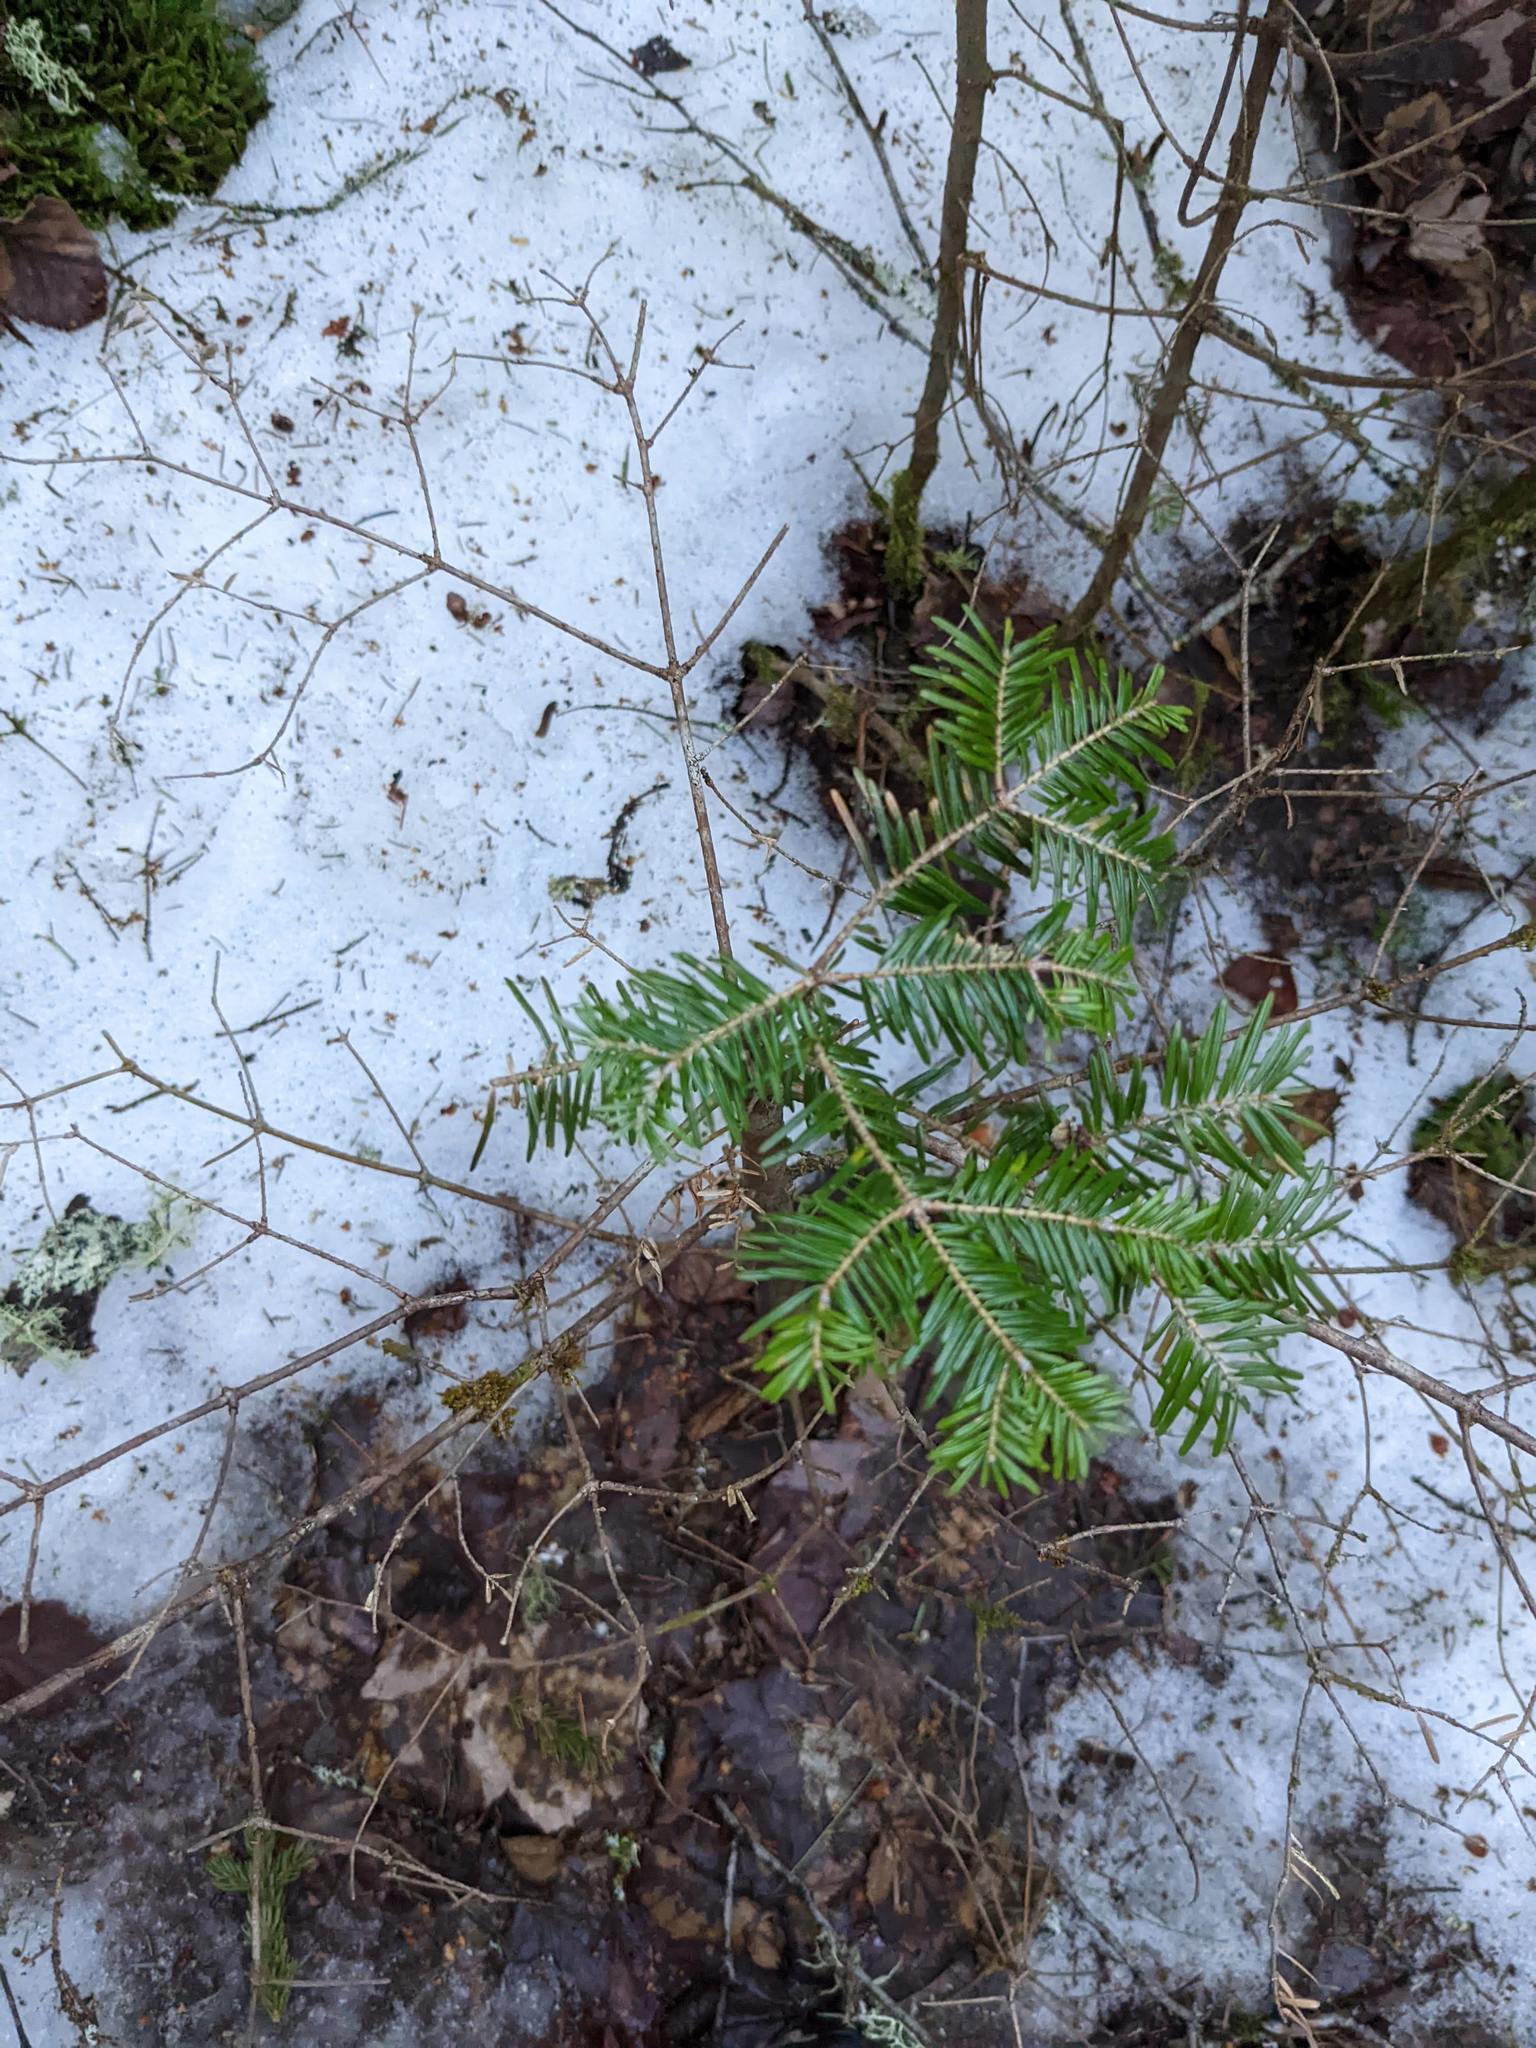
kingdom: Plantae
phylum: Tracheophyta
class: Pinopsida
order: Pinales
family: Pinaceae
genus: Abies
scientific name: Abies balsamea
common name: Balsam fir
